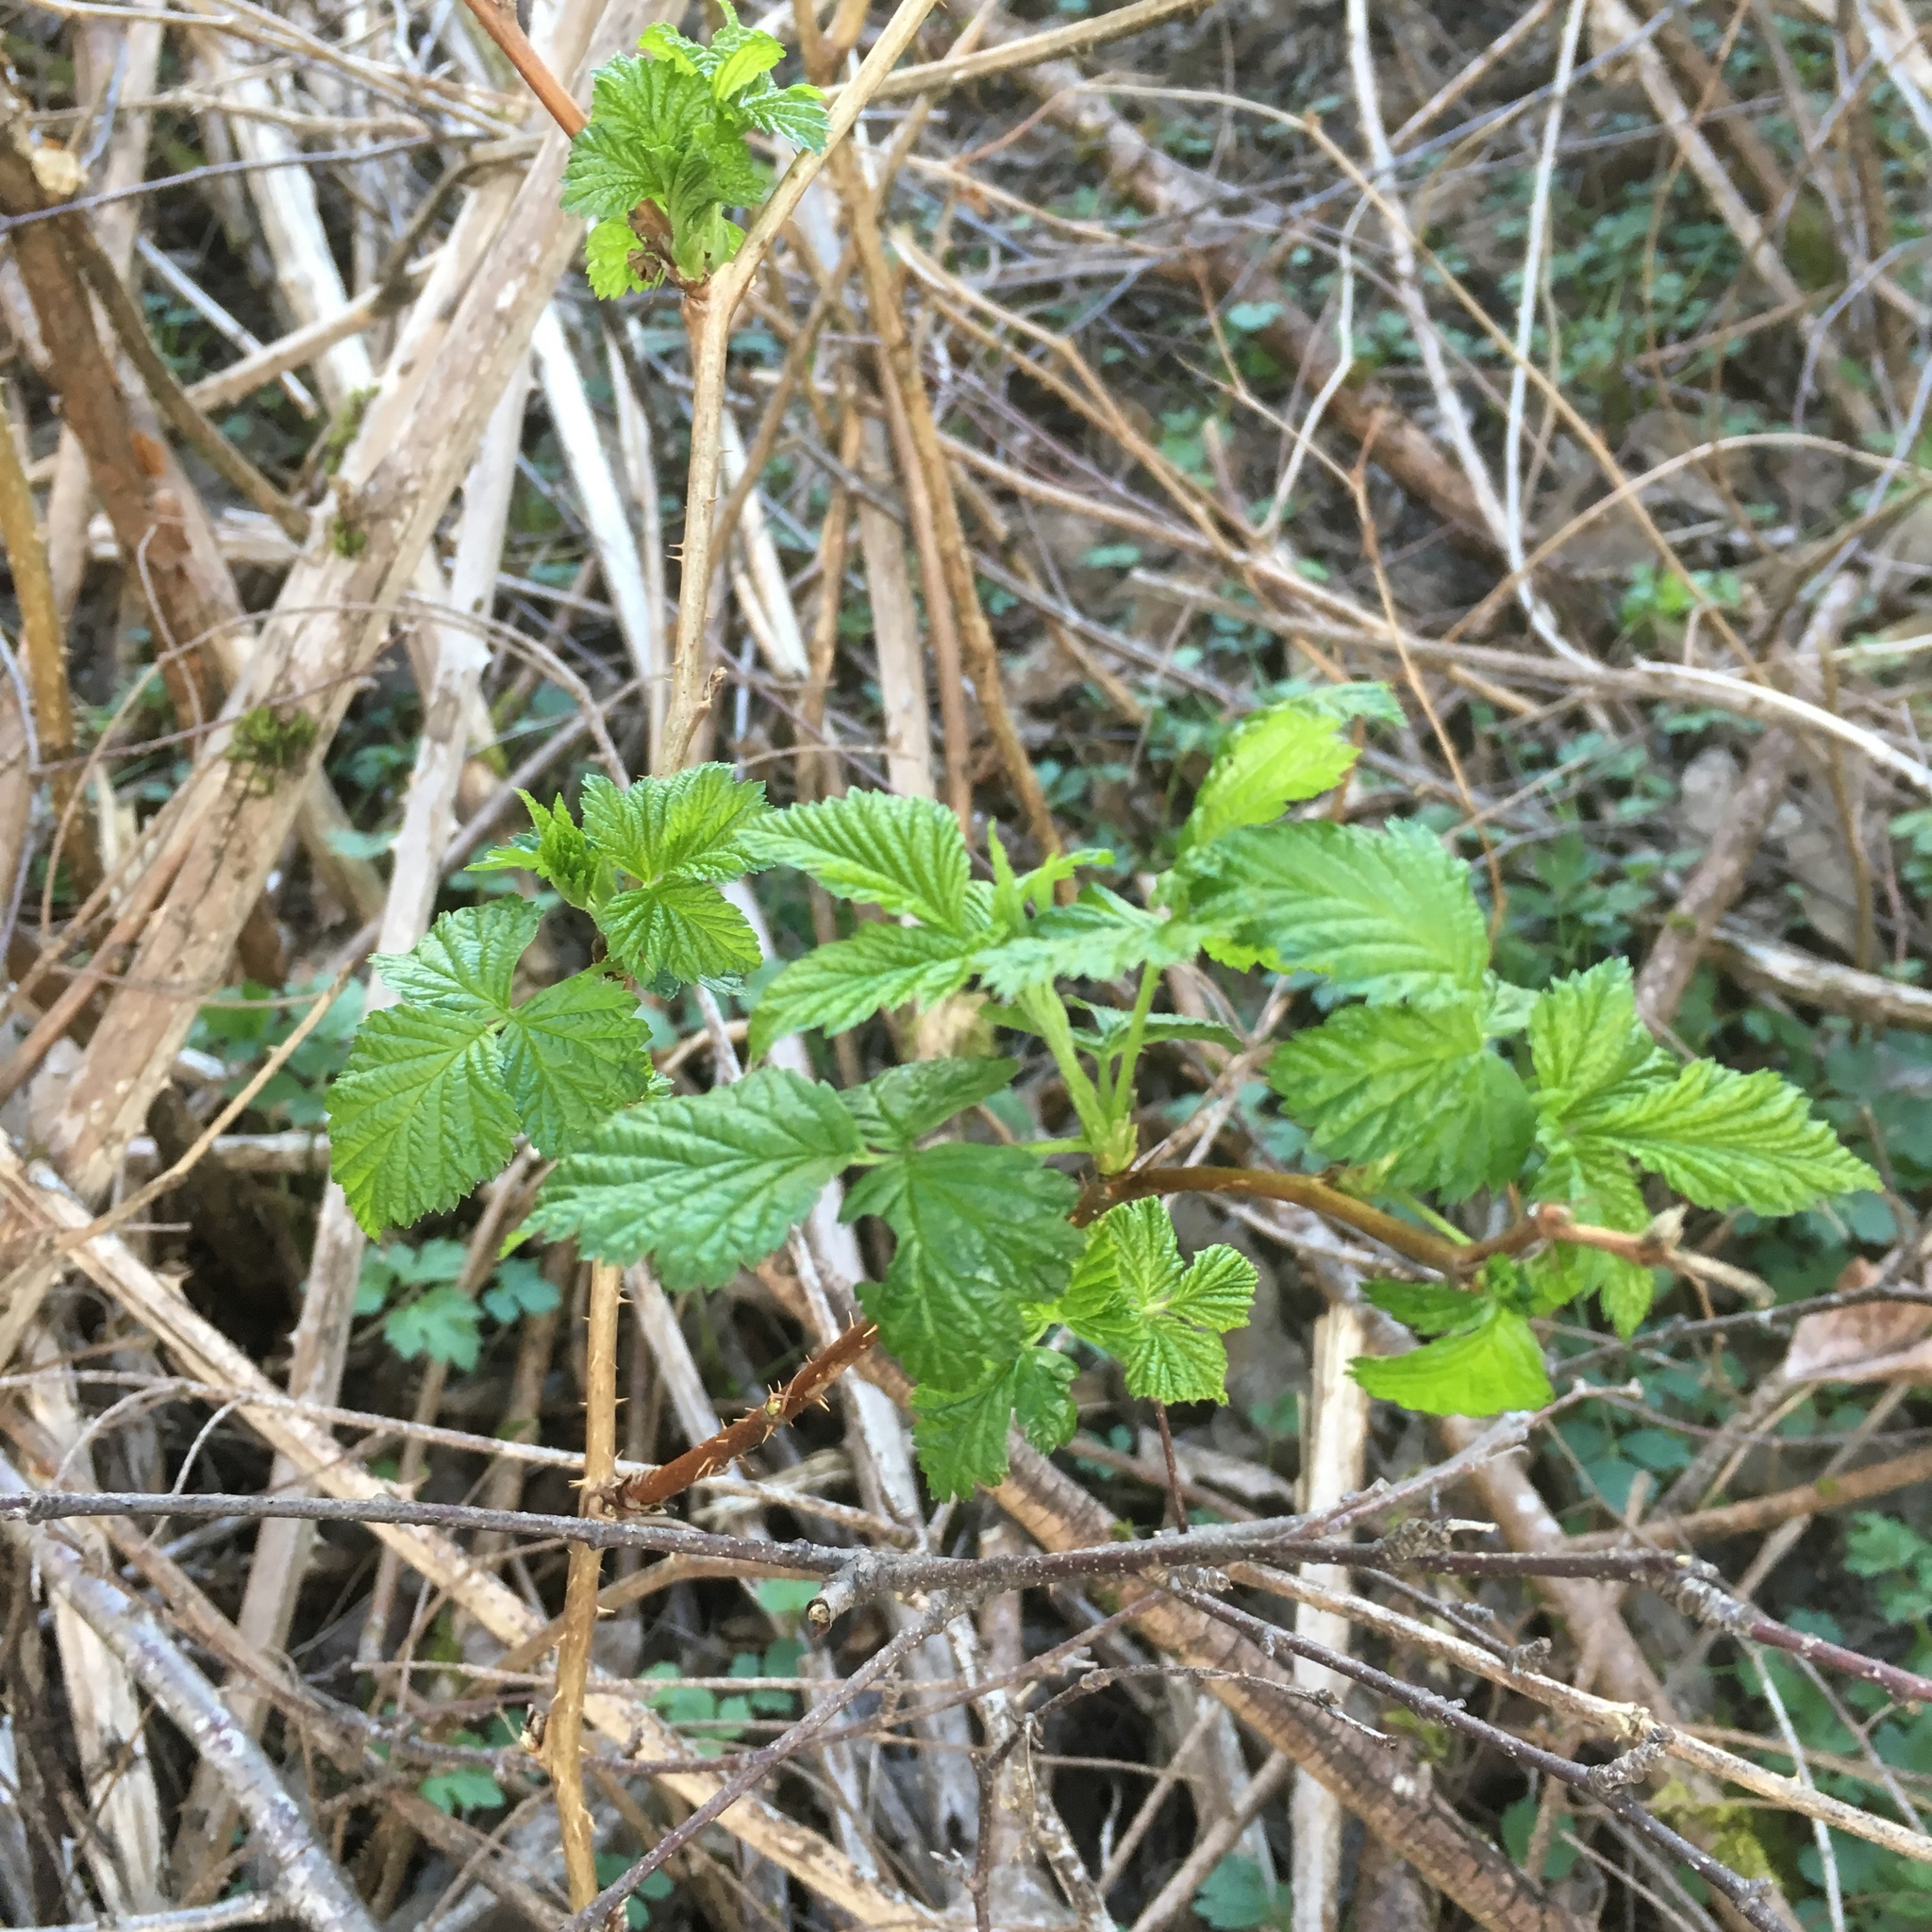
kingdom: Plantae
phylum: Tracheophyta
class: Magnoliopsida
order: Rosales
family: Rosaceae
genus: Rubus
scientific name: Rubus spectabilis
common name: Salmonberry
